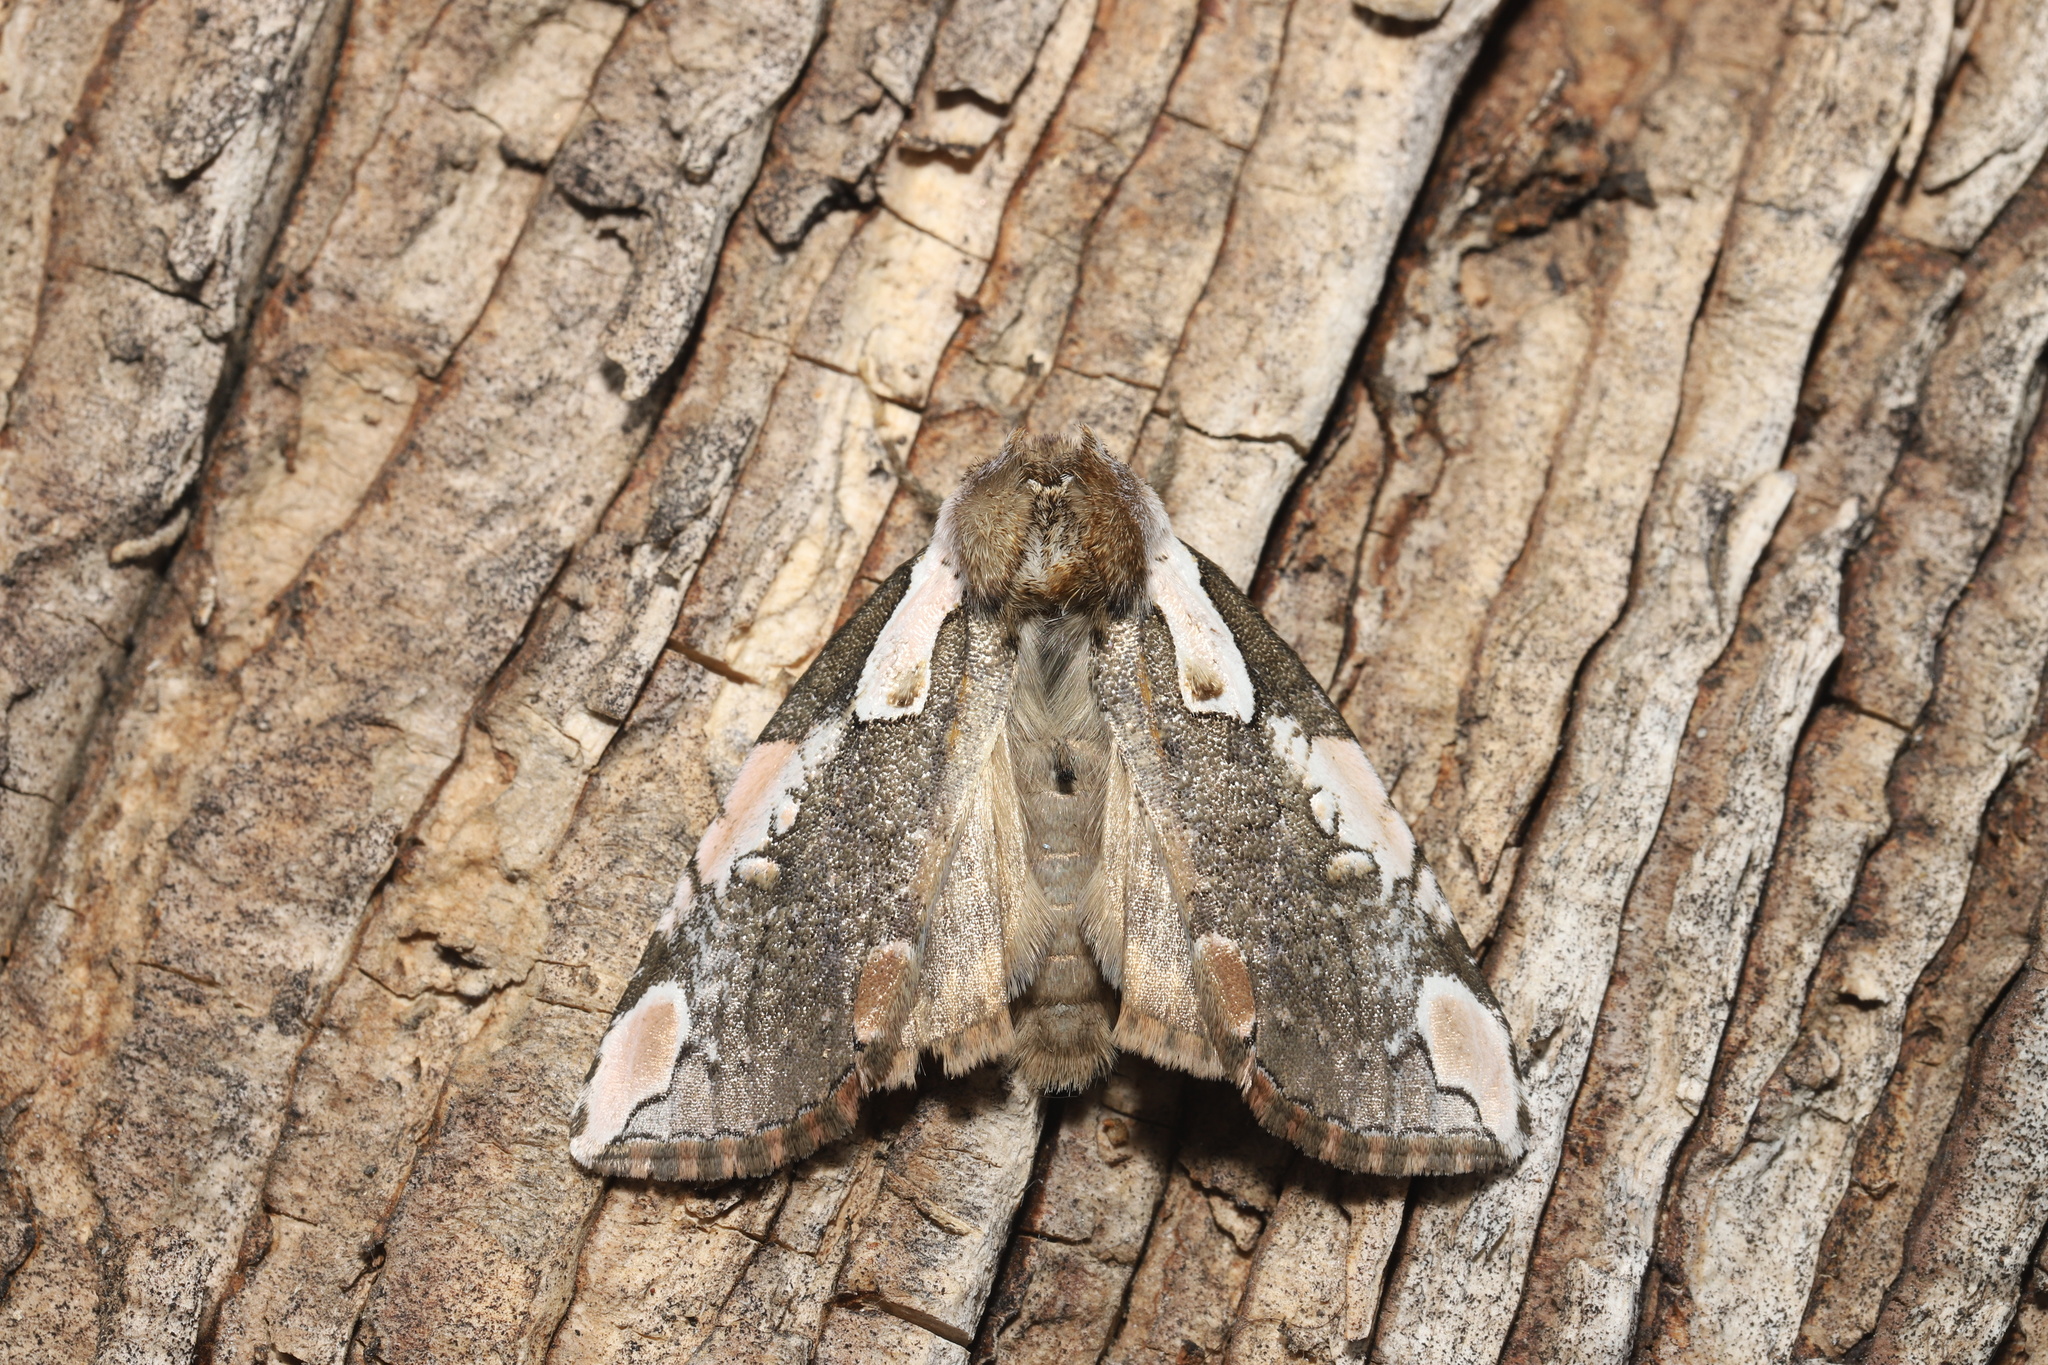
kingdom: Animalia
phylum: Arthropoda
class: Insecta
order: Lepidoptera
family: Drepanidae
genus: Euthyatira
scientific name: Euthyatira pudens
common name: Dogwood thyatirid moth
